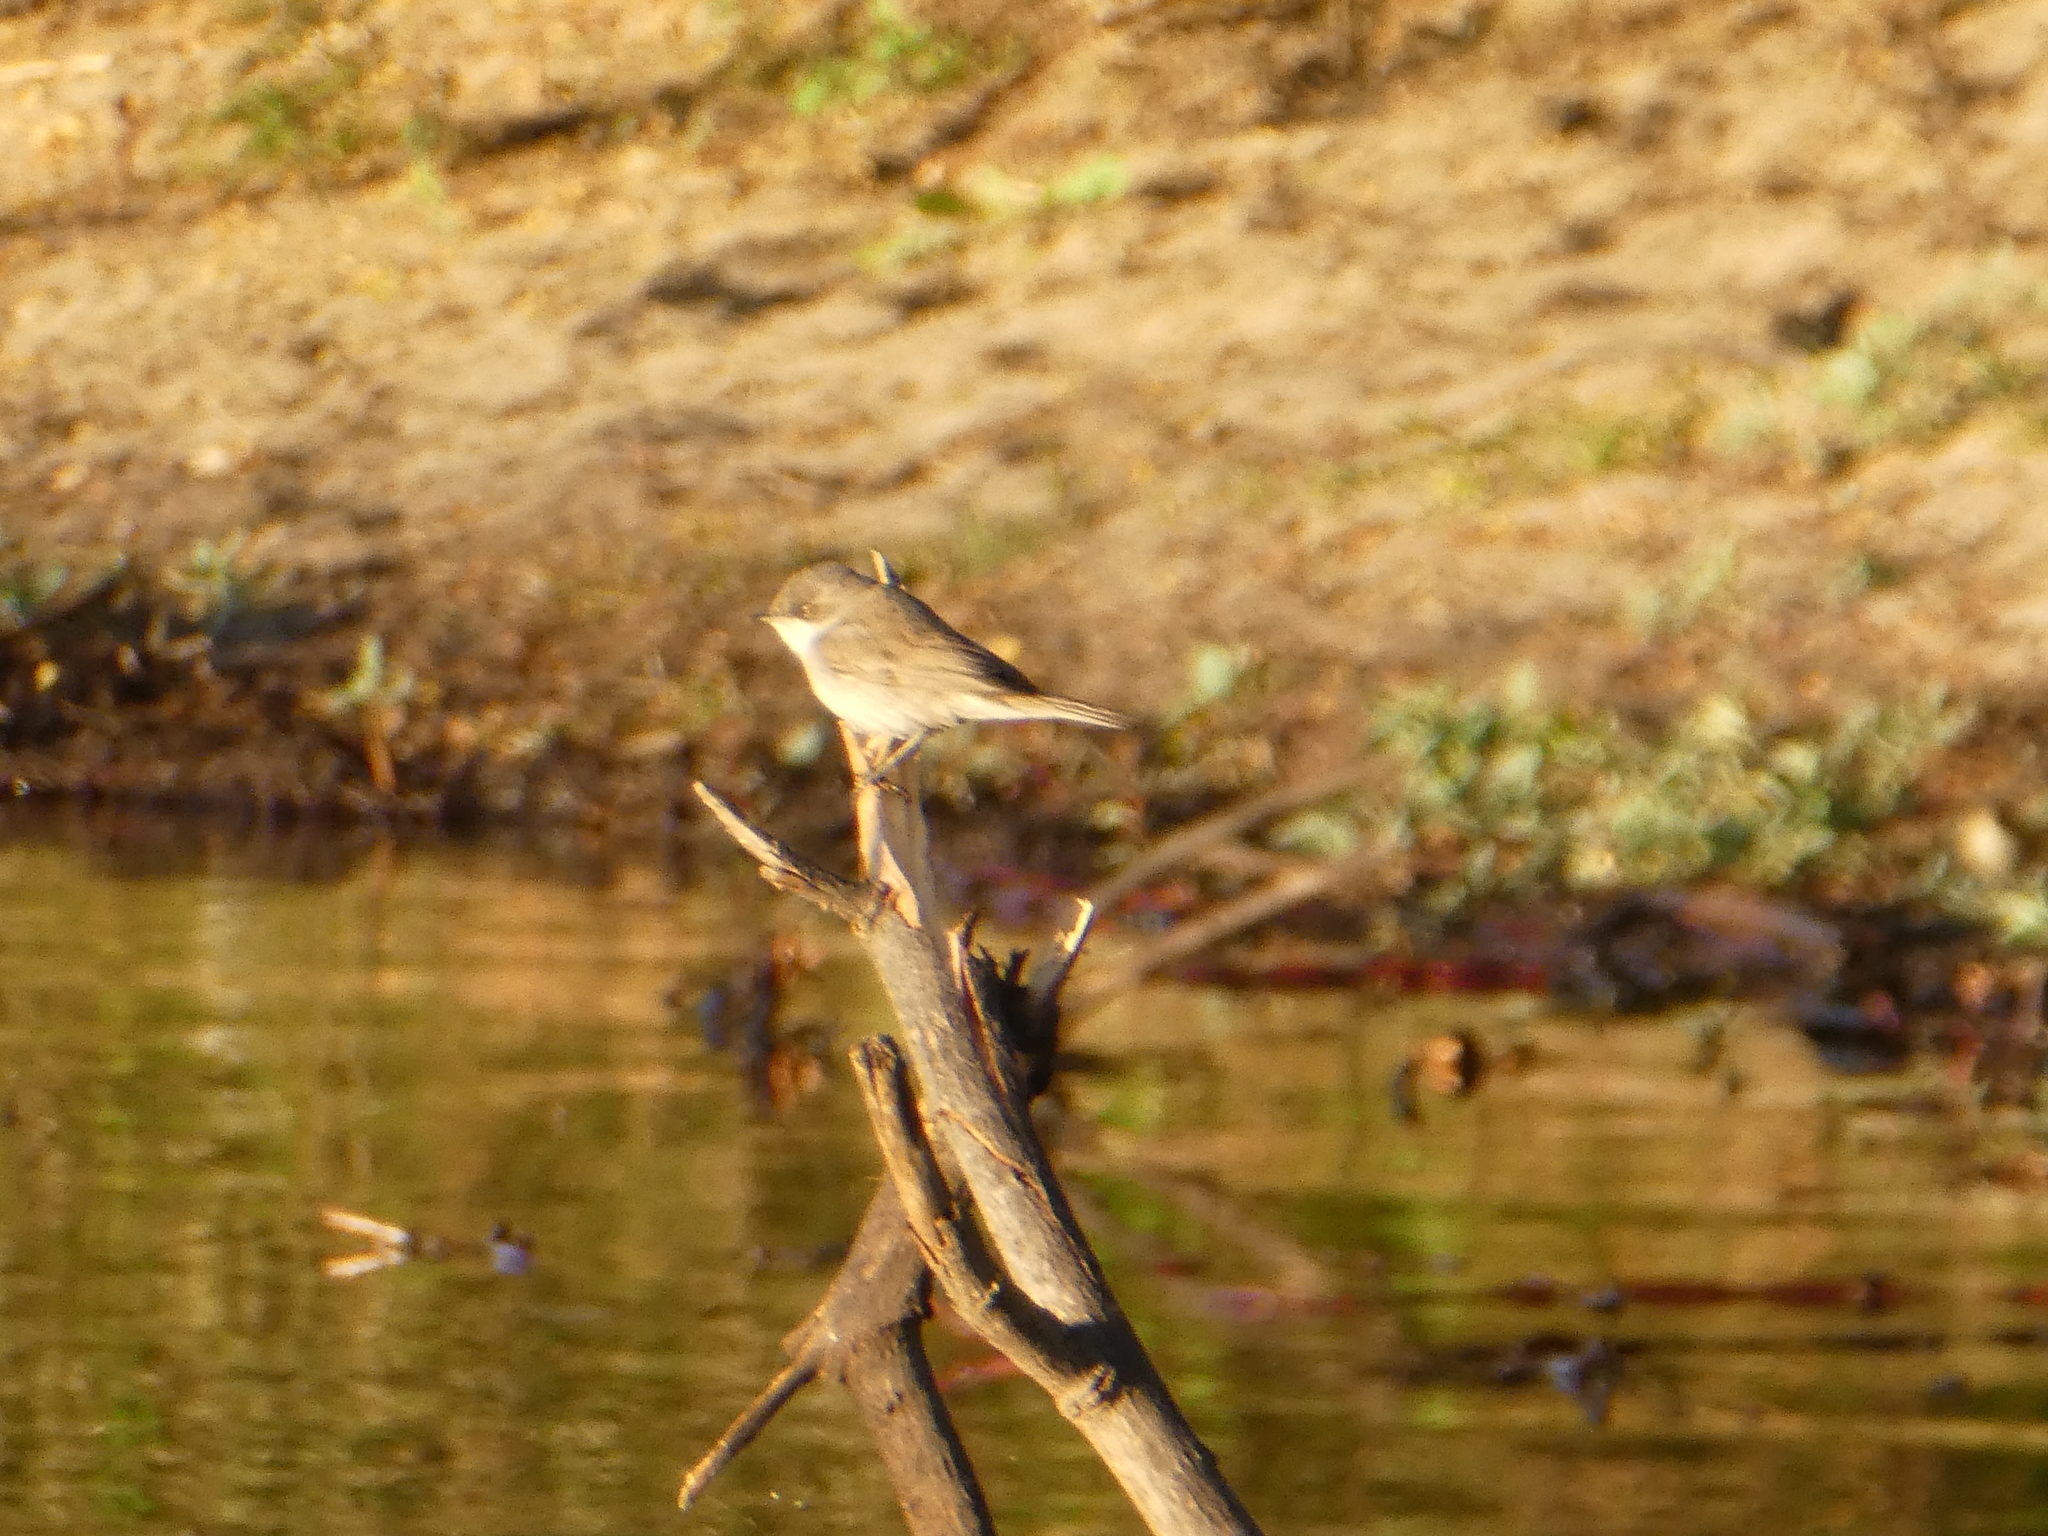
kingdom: Animalia
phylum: Chordata
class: Aves
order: Passeriformes
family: Sylviidae
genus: Sylvia
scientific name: Sylvia curruca
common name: Lesser whitethroat
